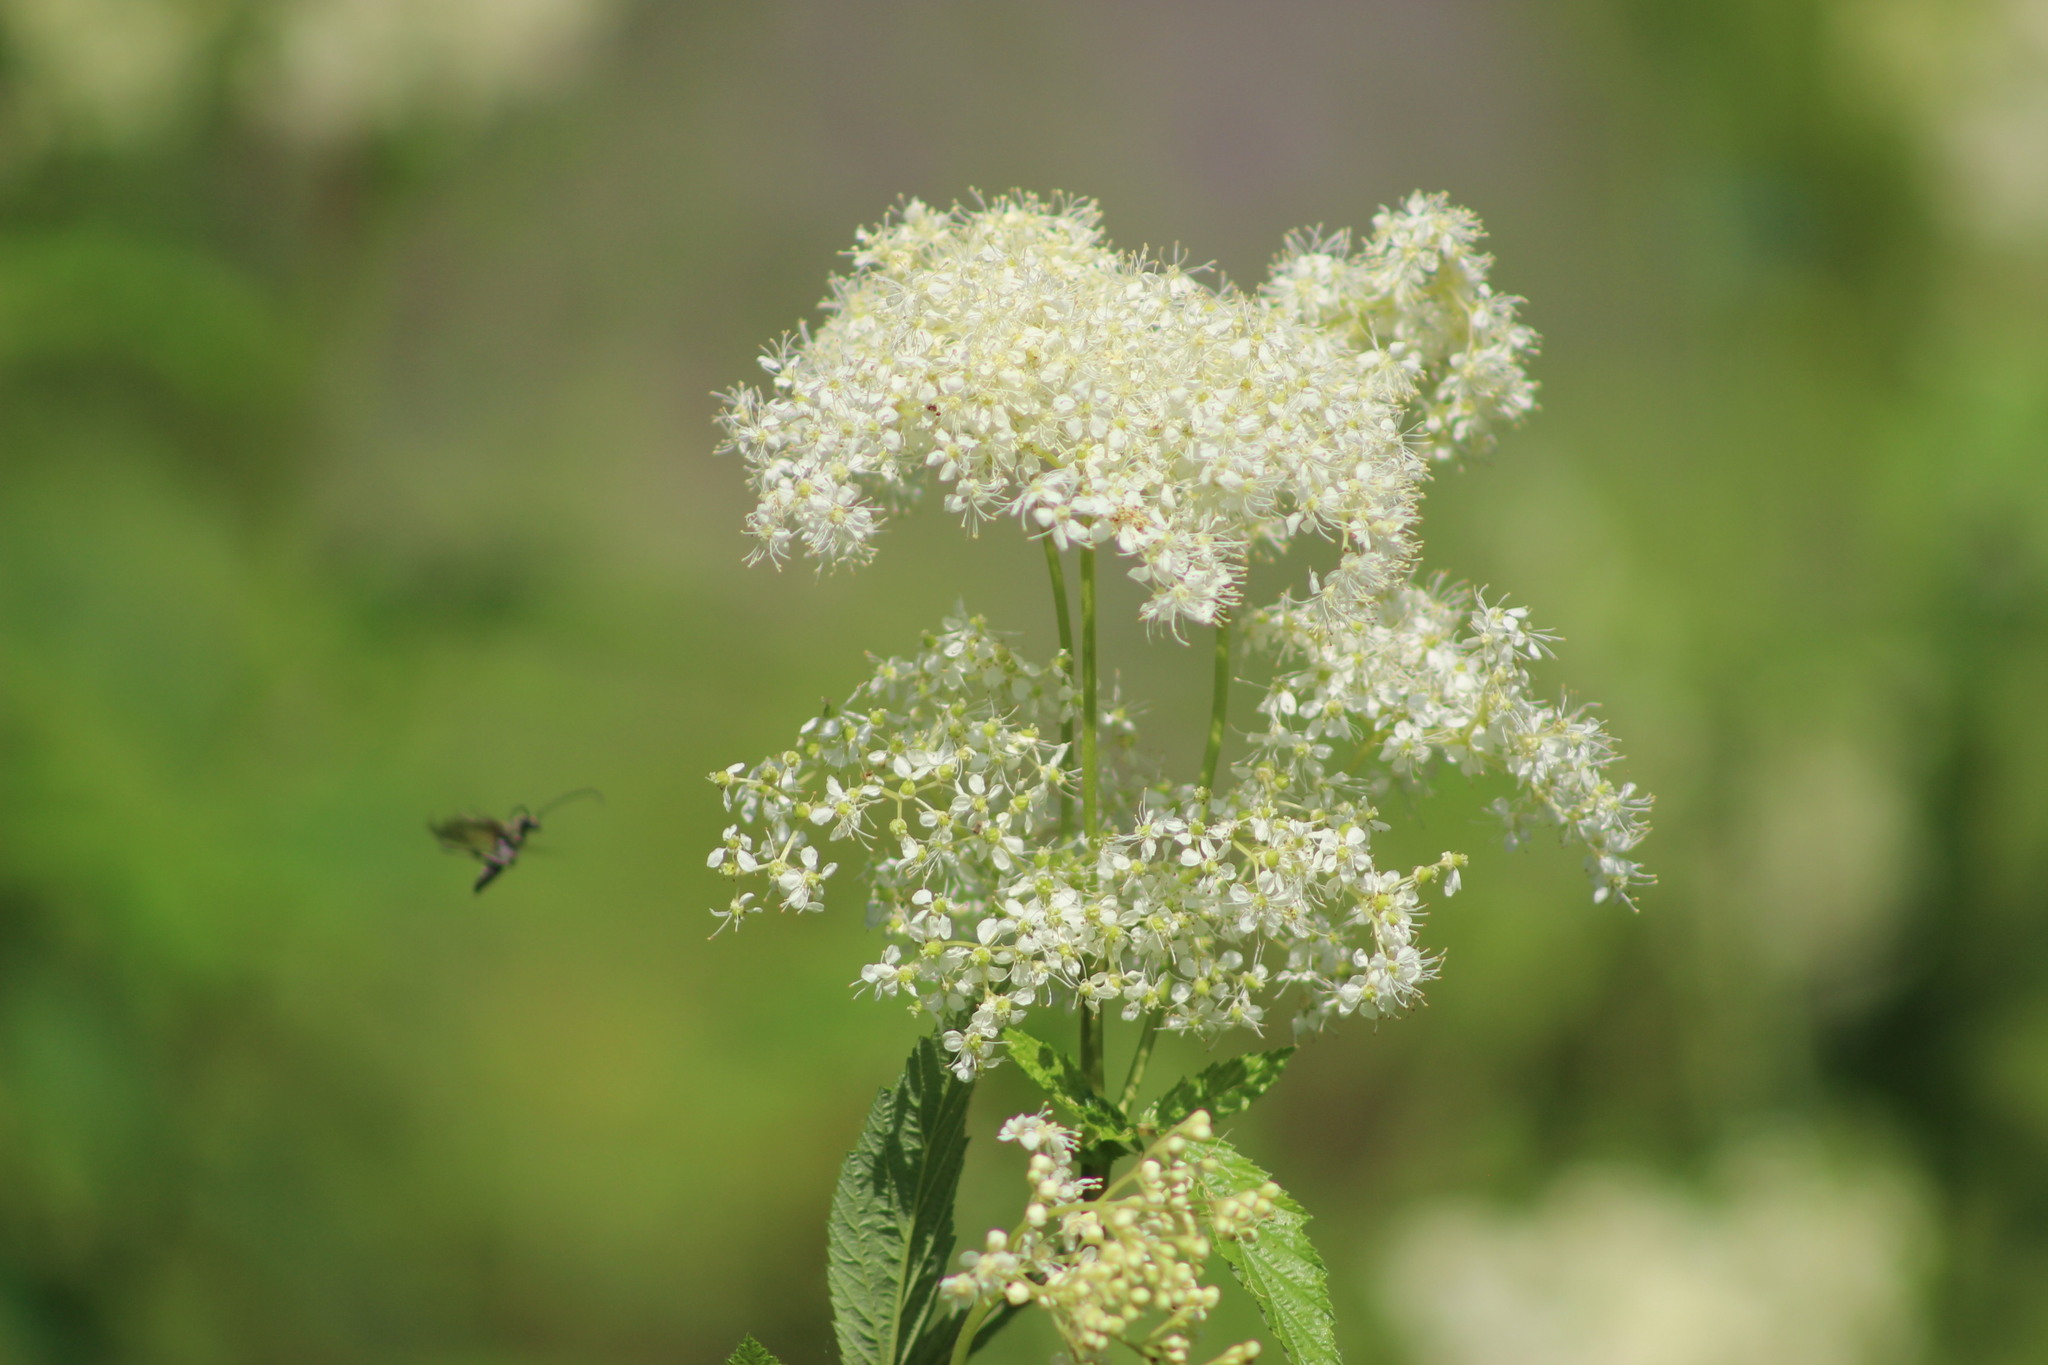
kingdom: Plantae
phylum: Tracheophyta
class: Magnoliopsida
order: Rosales
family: Rosaceae
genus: Filipendula
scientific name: Filipendula ulmaria
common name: Meadowsweet
